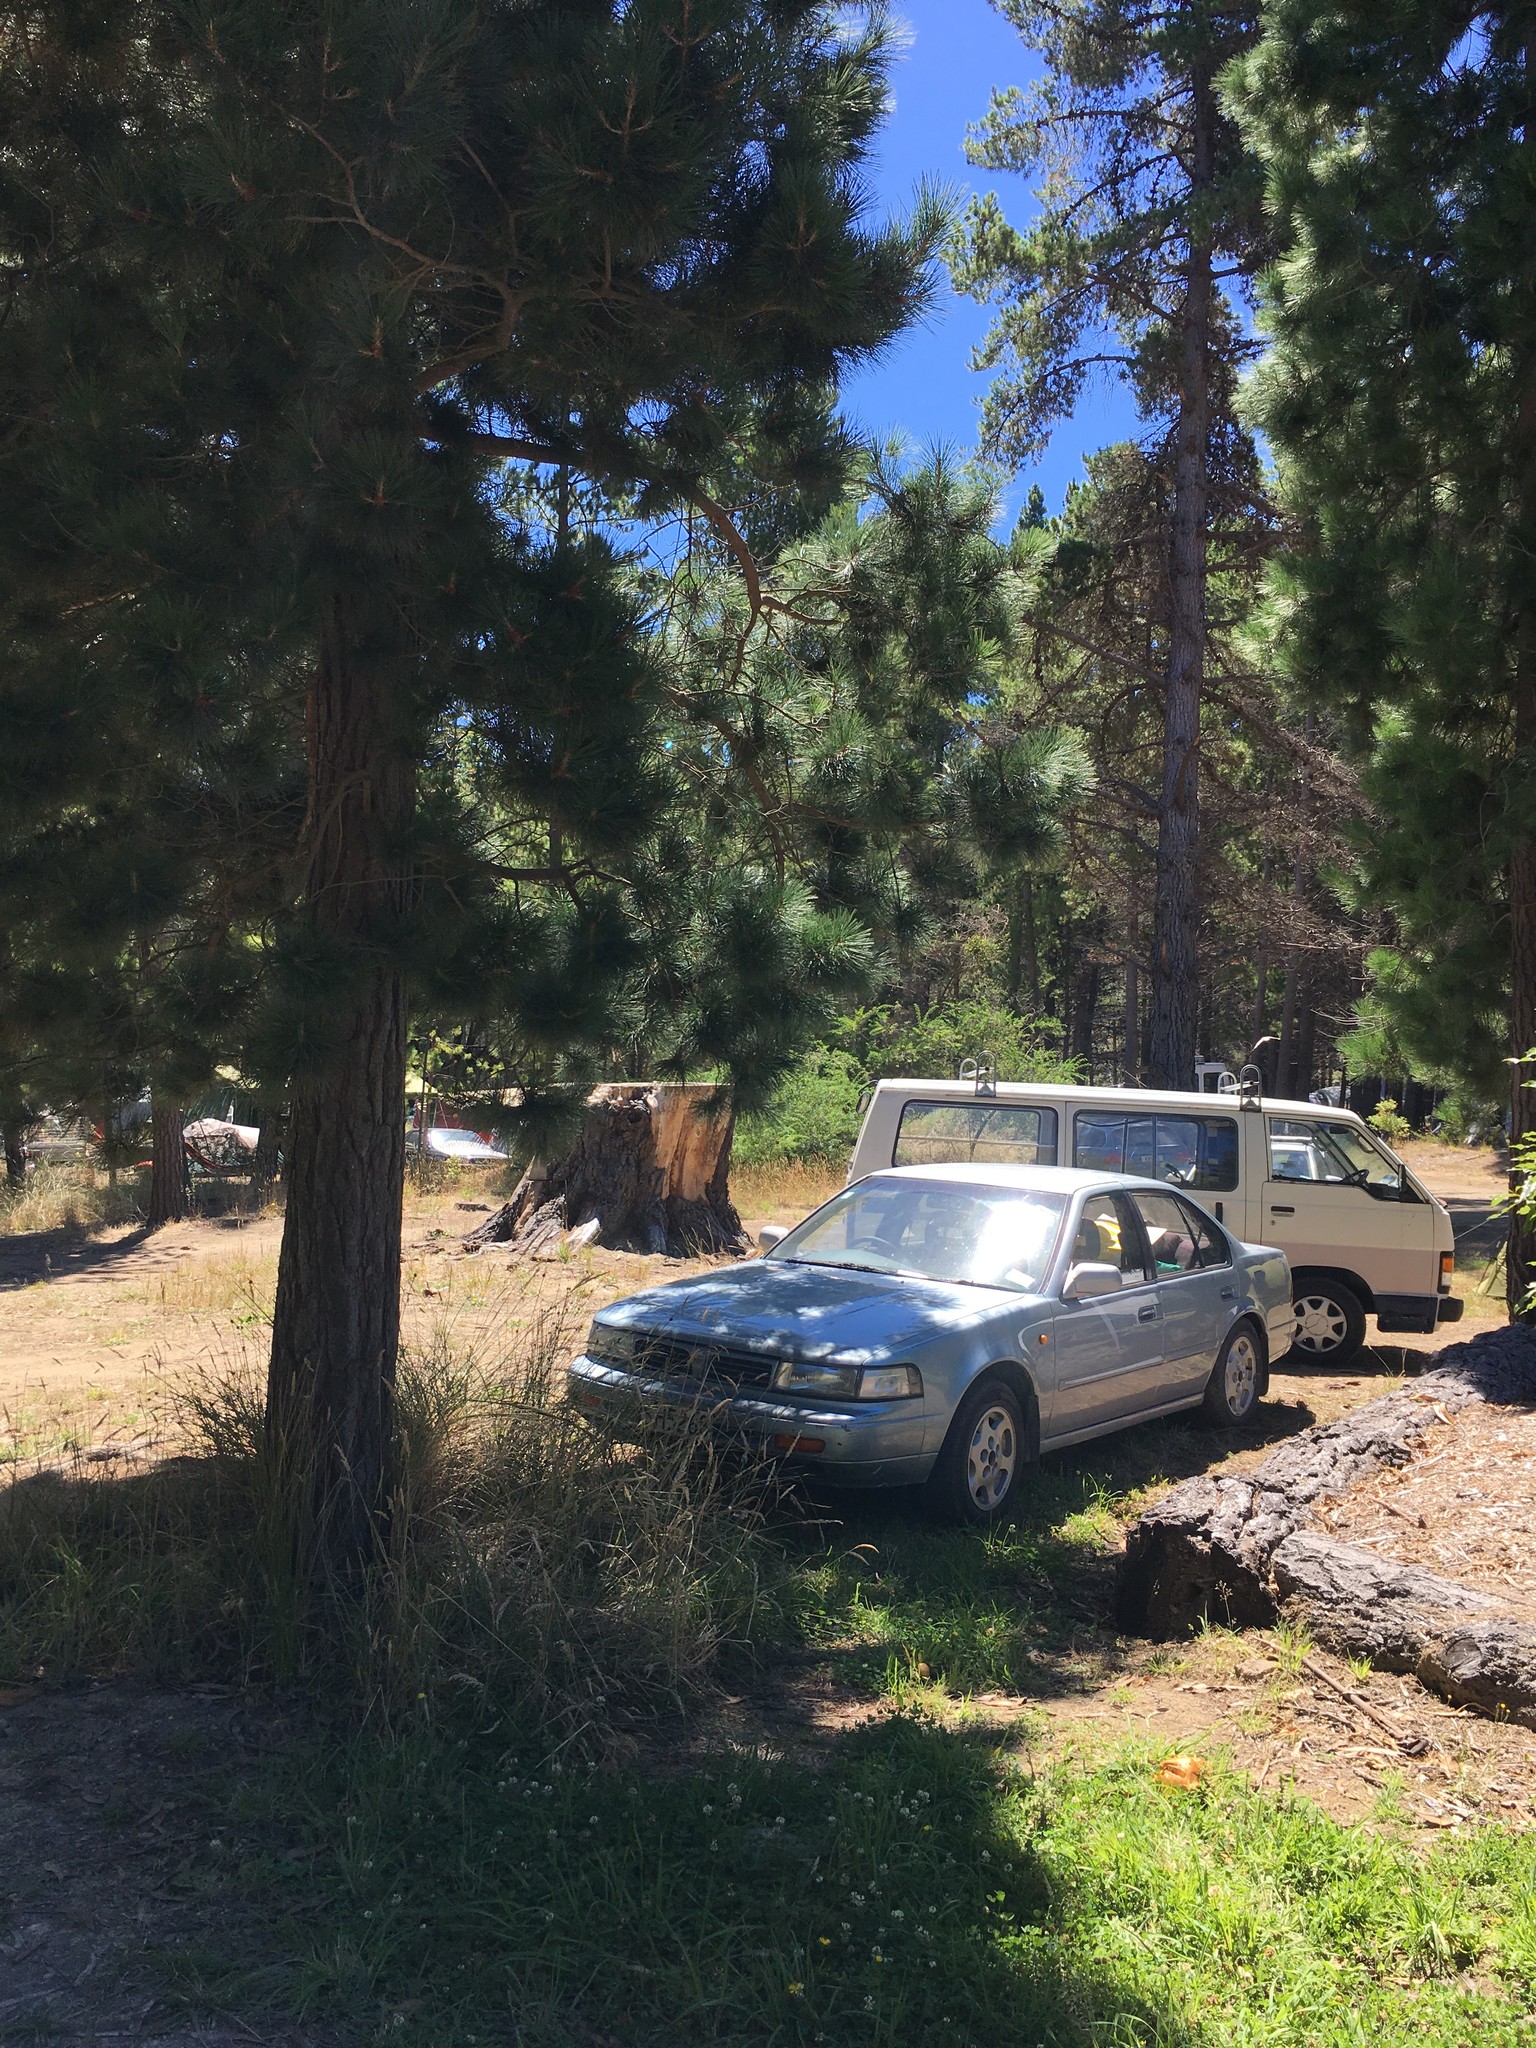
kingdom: Fungi
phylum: Basidiomycota
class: Agaricomycetes
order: Agaricales
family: Hymenogastraceae
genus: Gymnopilus
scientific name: Gymnopilus junonius
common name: Spectacular rustgill
